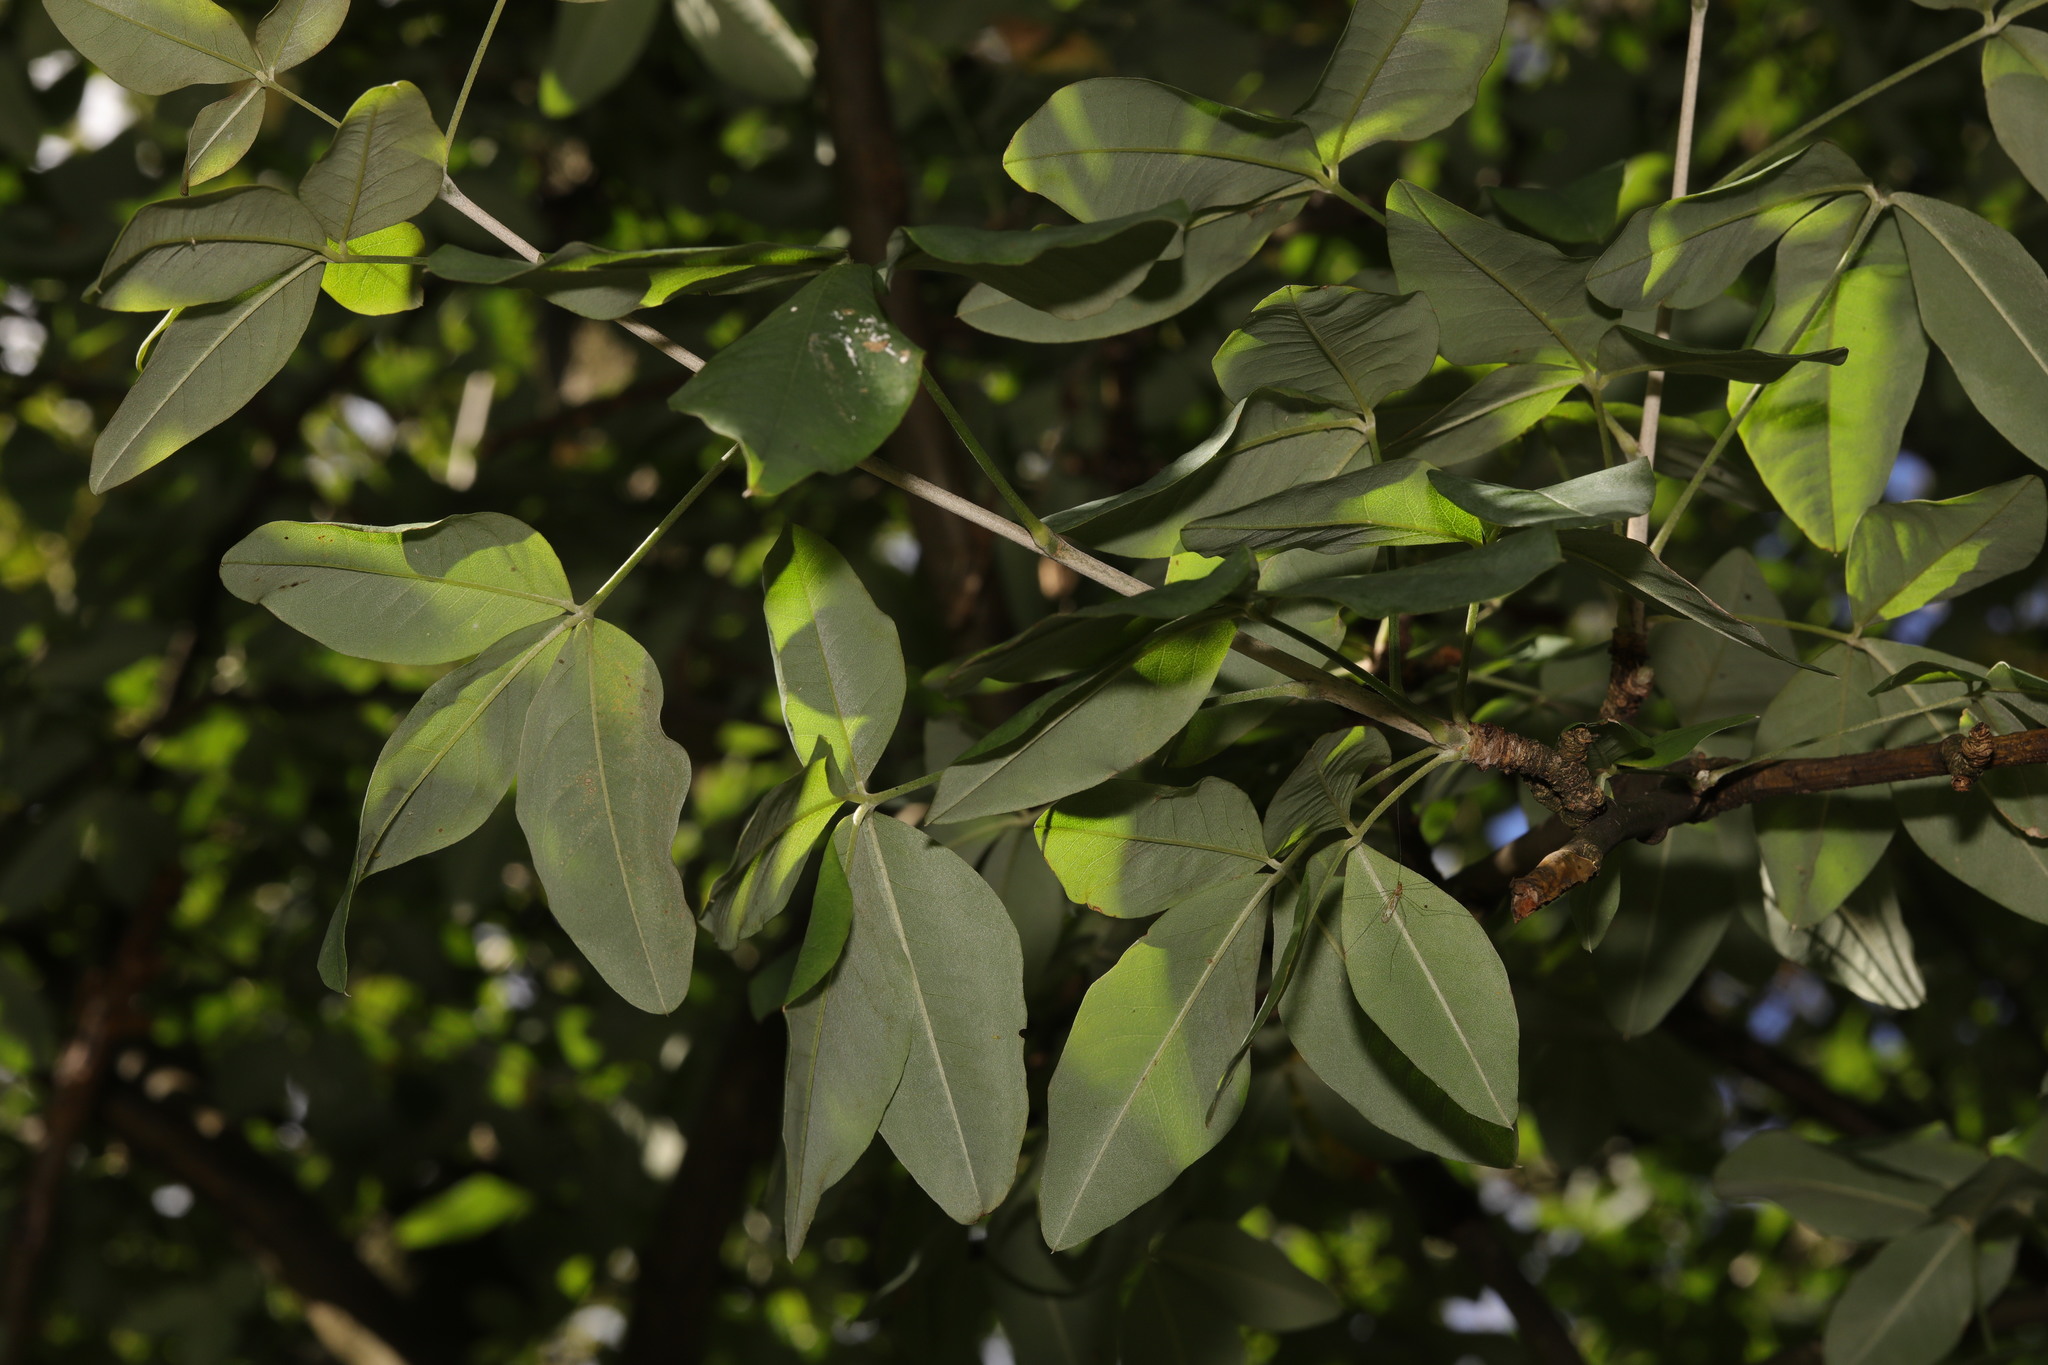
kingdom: Plantae
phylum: Tracheophyta
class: Magnoliopsida
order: Fabales
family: Fabaceae
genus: Laburnum
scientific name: Laburnum anagyroides
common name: Laburnum
